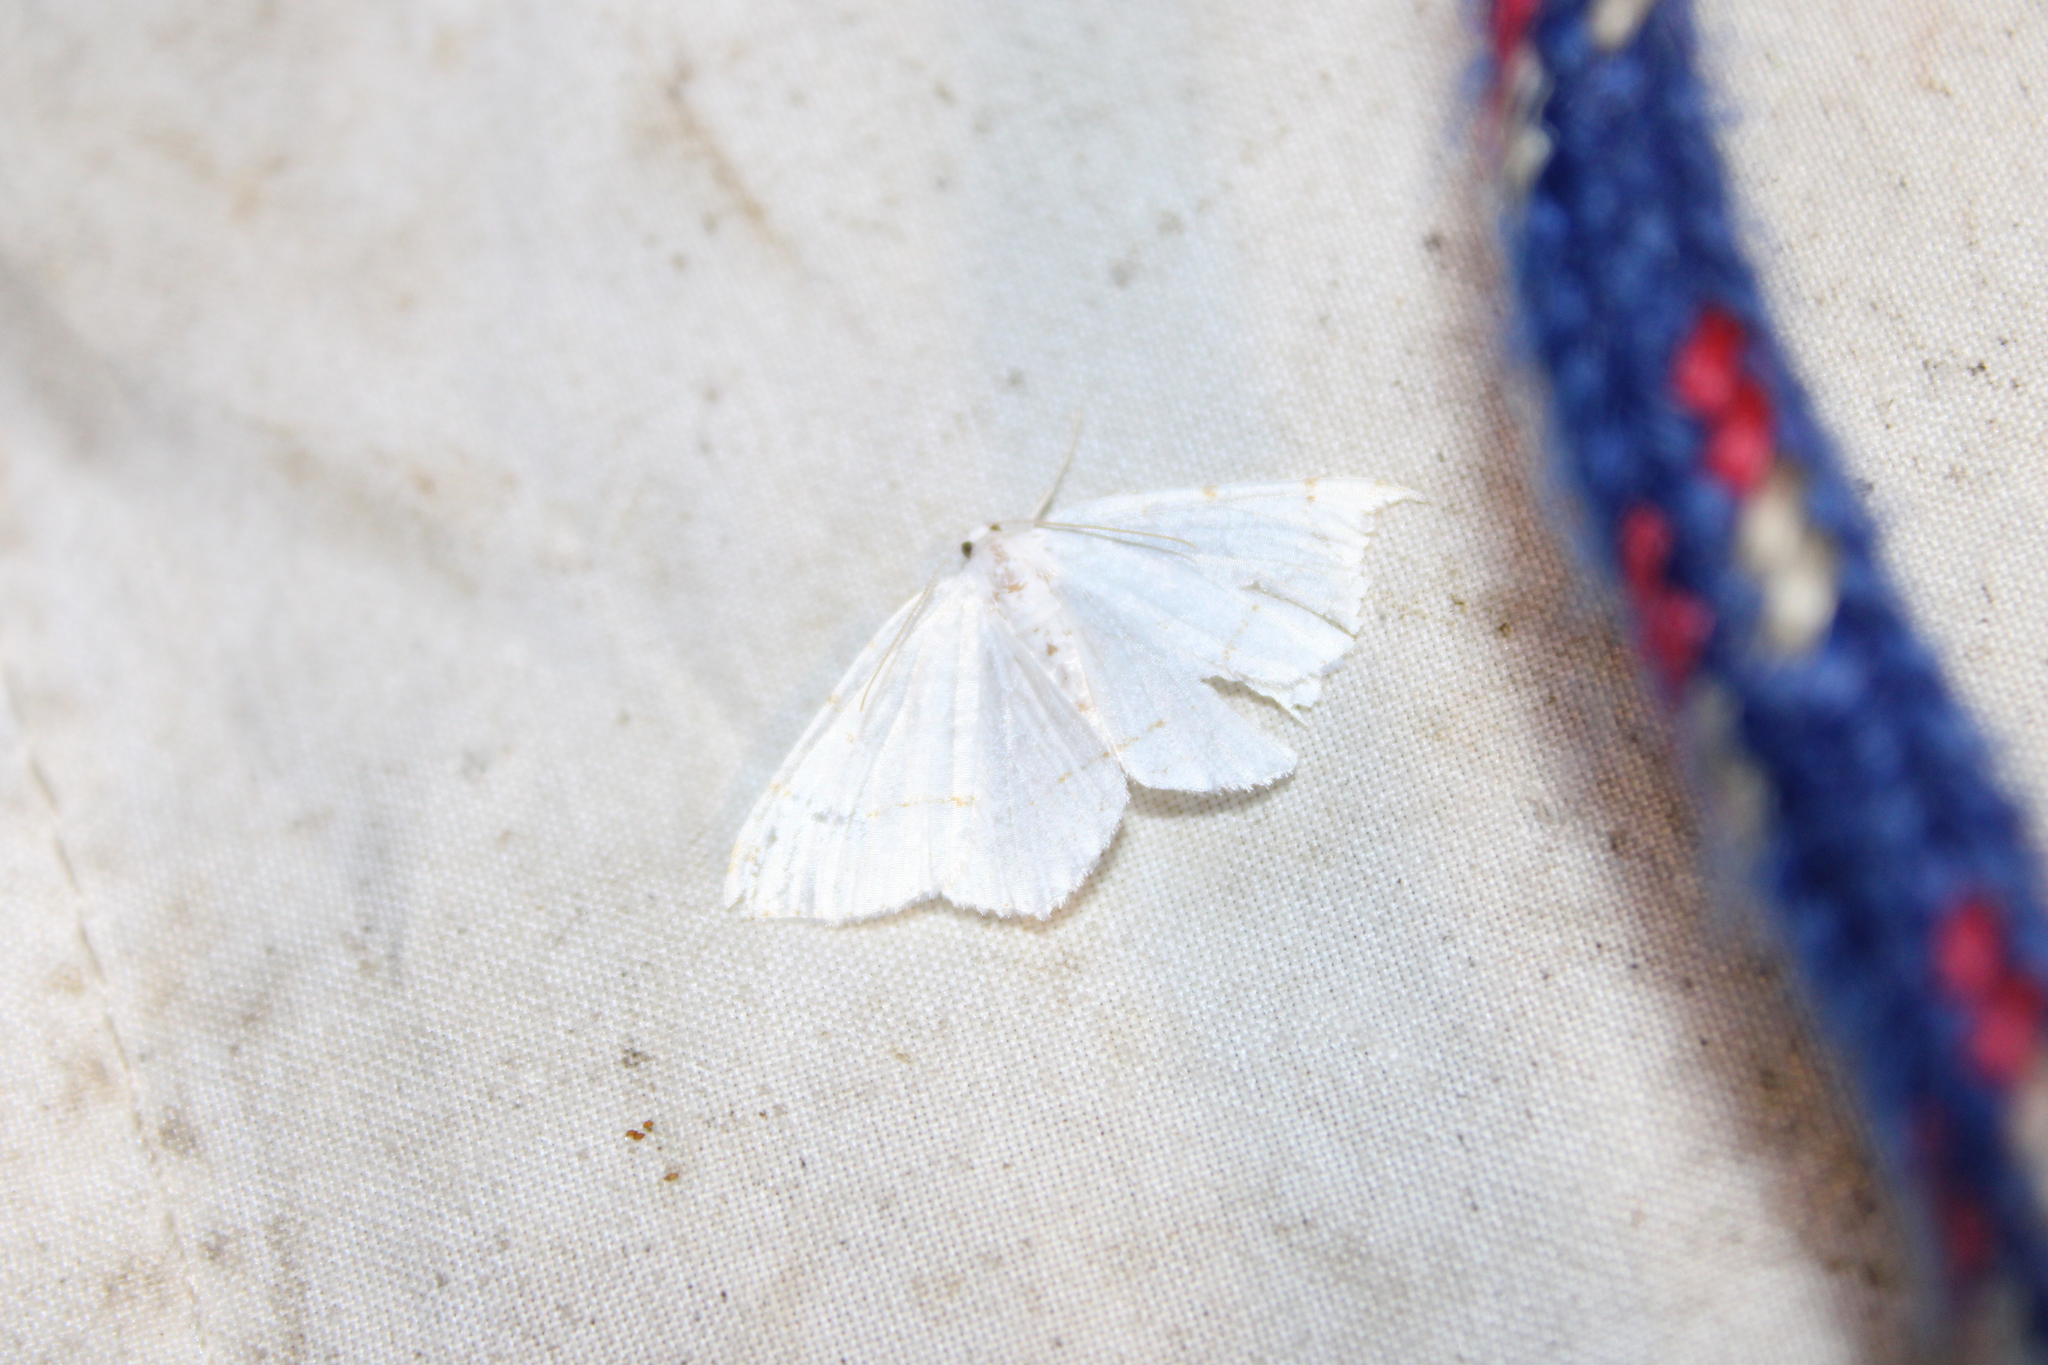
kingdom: Animalia
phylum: Arthropoda
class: Insecta
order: Lepidoptera
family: Geometridae
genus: Macaria
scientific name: Macaria pustularia
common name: Lesser maple spanworm moth
